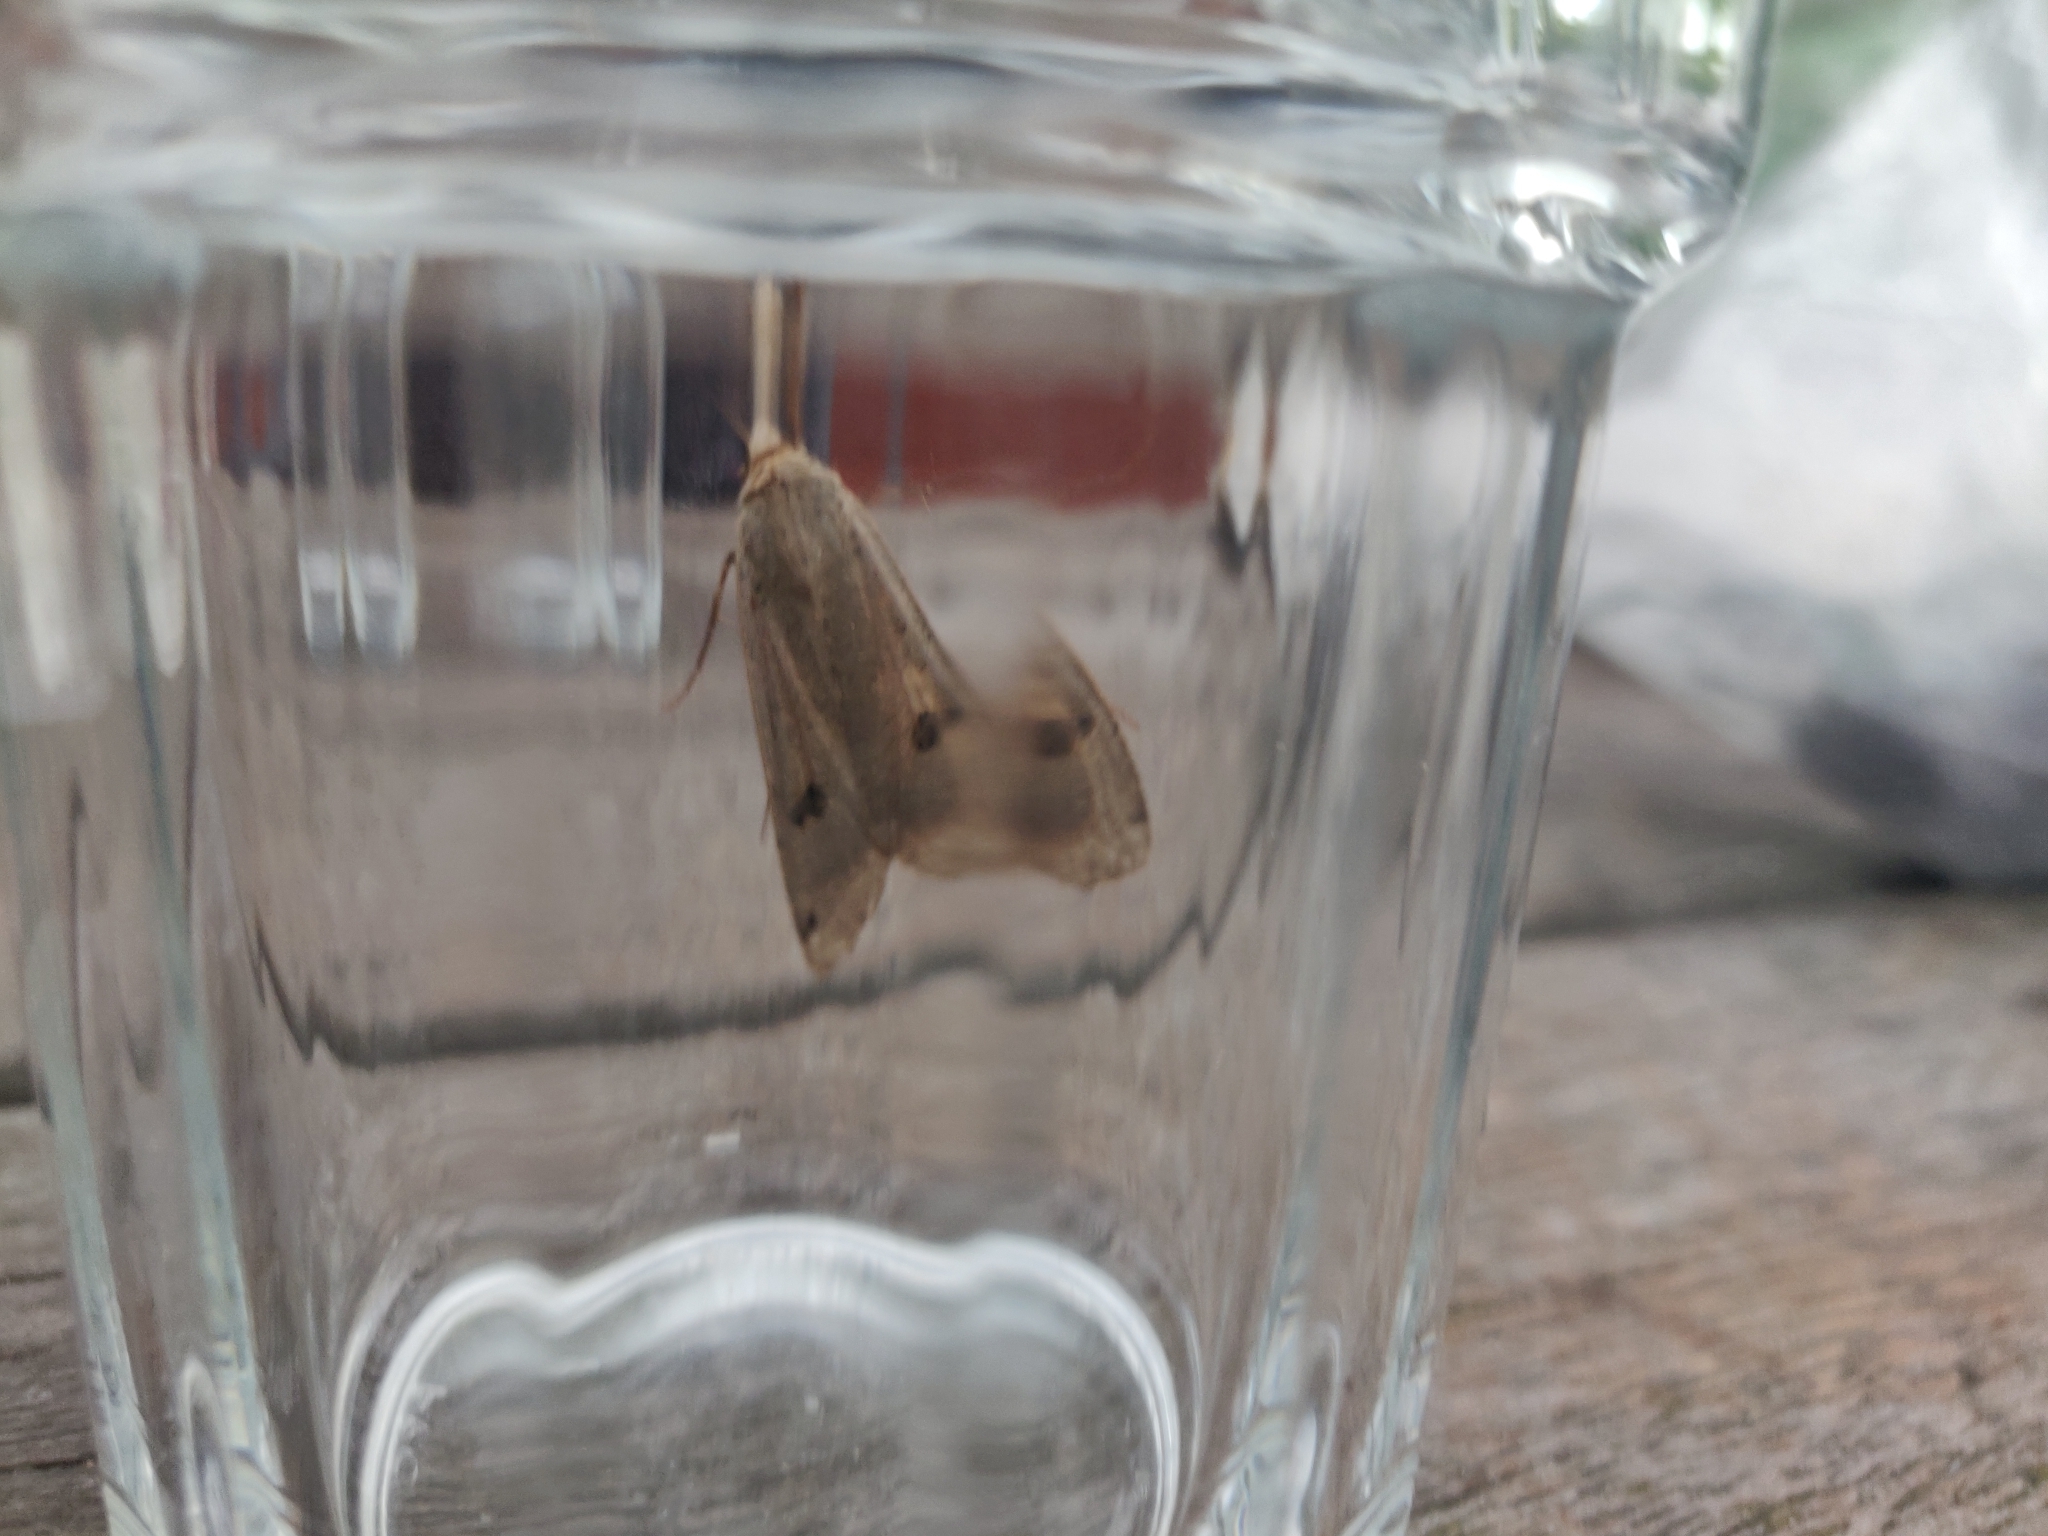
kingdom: Animalia
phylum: Arthropoda
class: Insecta
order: Lepidoptera
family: Noctuidae
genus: Noctua
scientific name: Noctua pronuba
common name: Large yellow underwing
